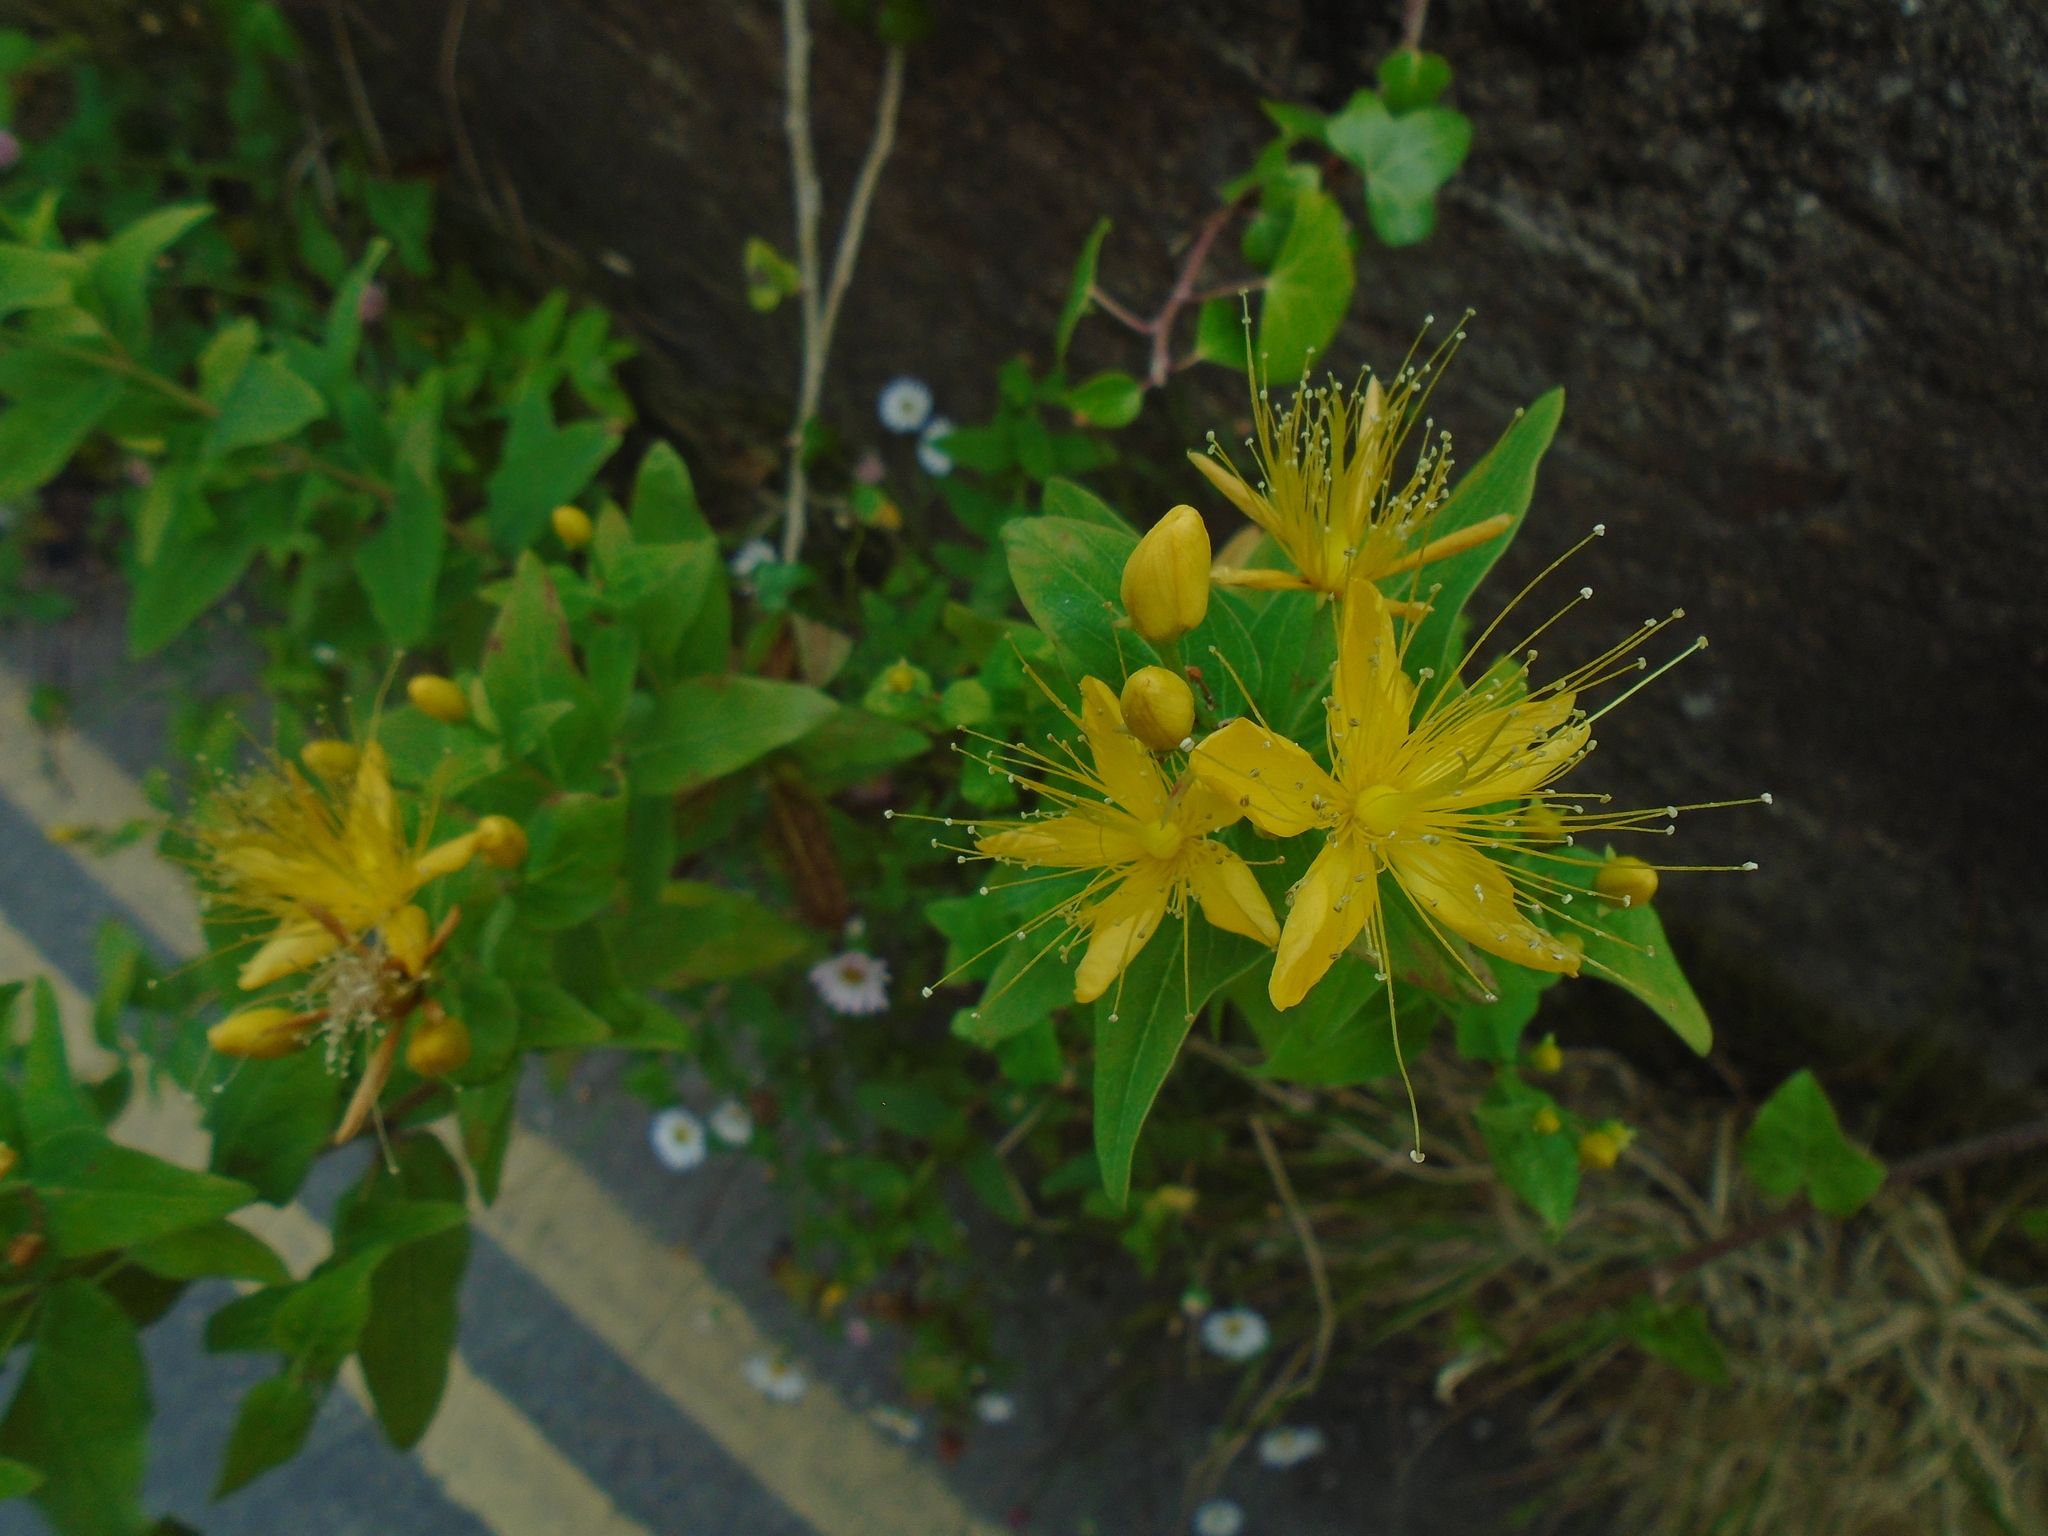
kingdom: Plantae
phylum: Tracheophyta
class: Magnoliopsida
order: Malpighiales
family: Hypericaceae
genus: Hypericum
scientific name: Hypericum hircinum
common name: Stinking tutsan
